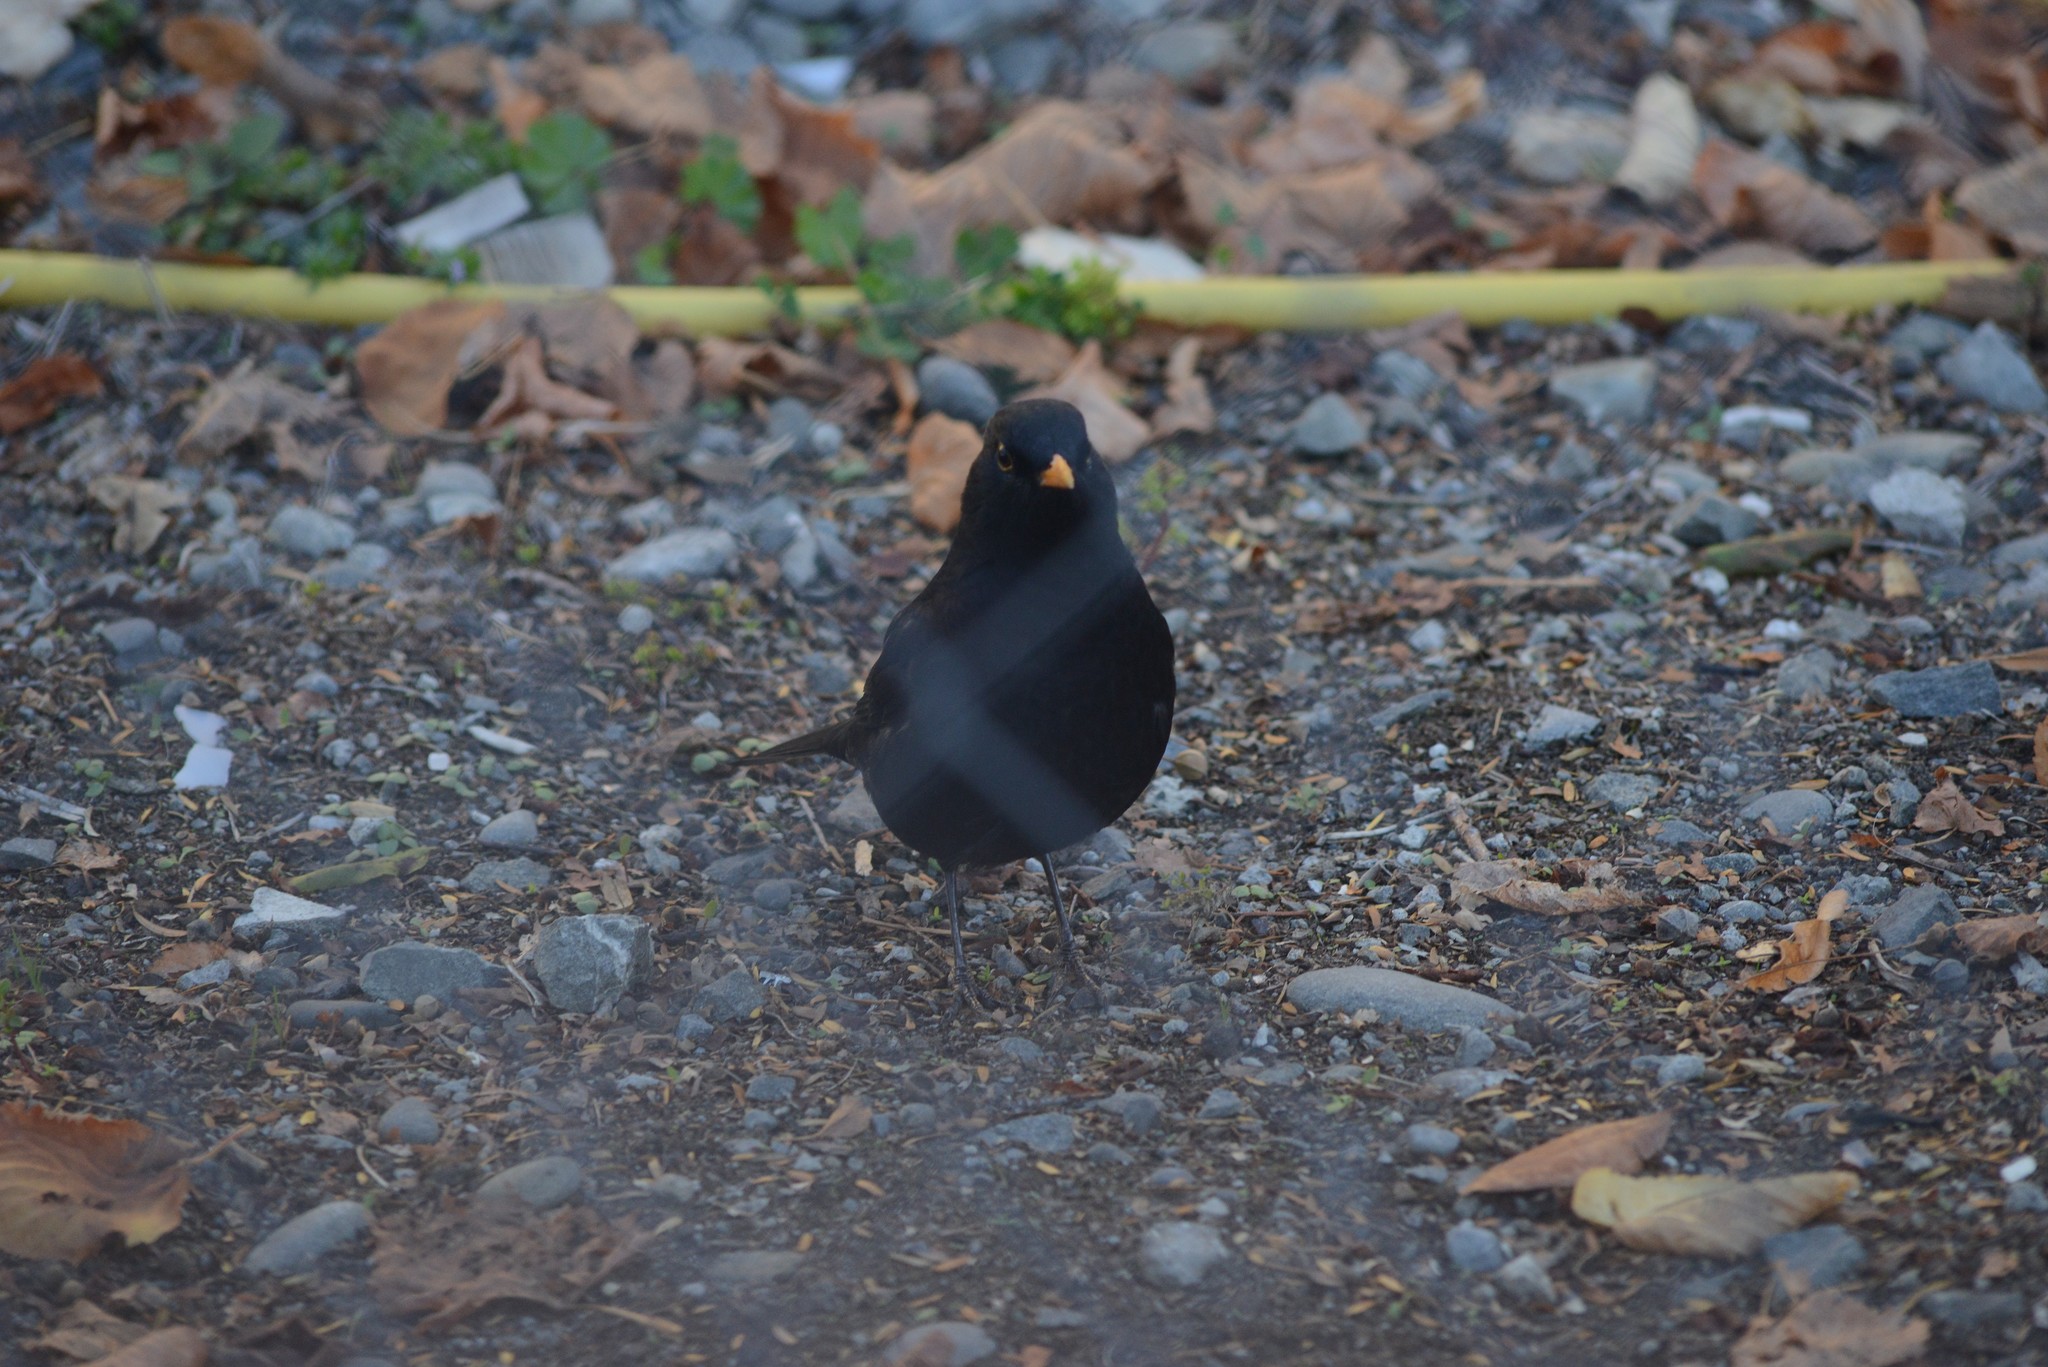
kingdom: Animalia
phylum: Chordata
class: Aves
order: Passeriformes
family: Turdidae
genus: Turdus
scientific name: Turdus merula
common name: Common blackbird
